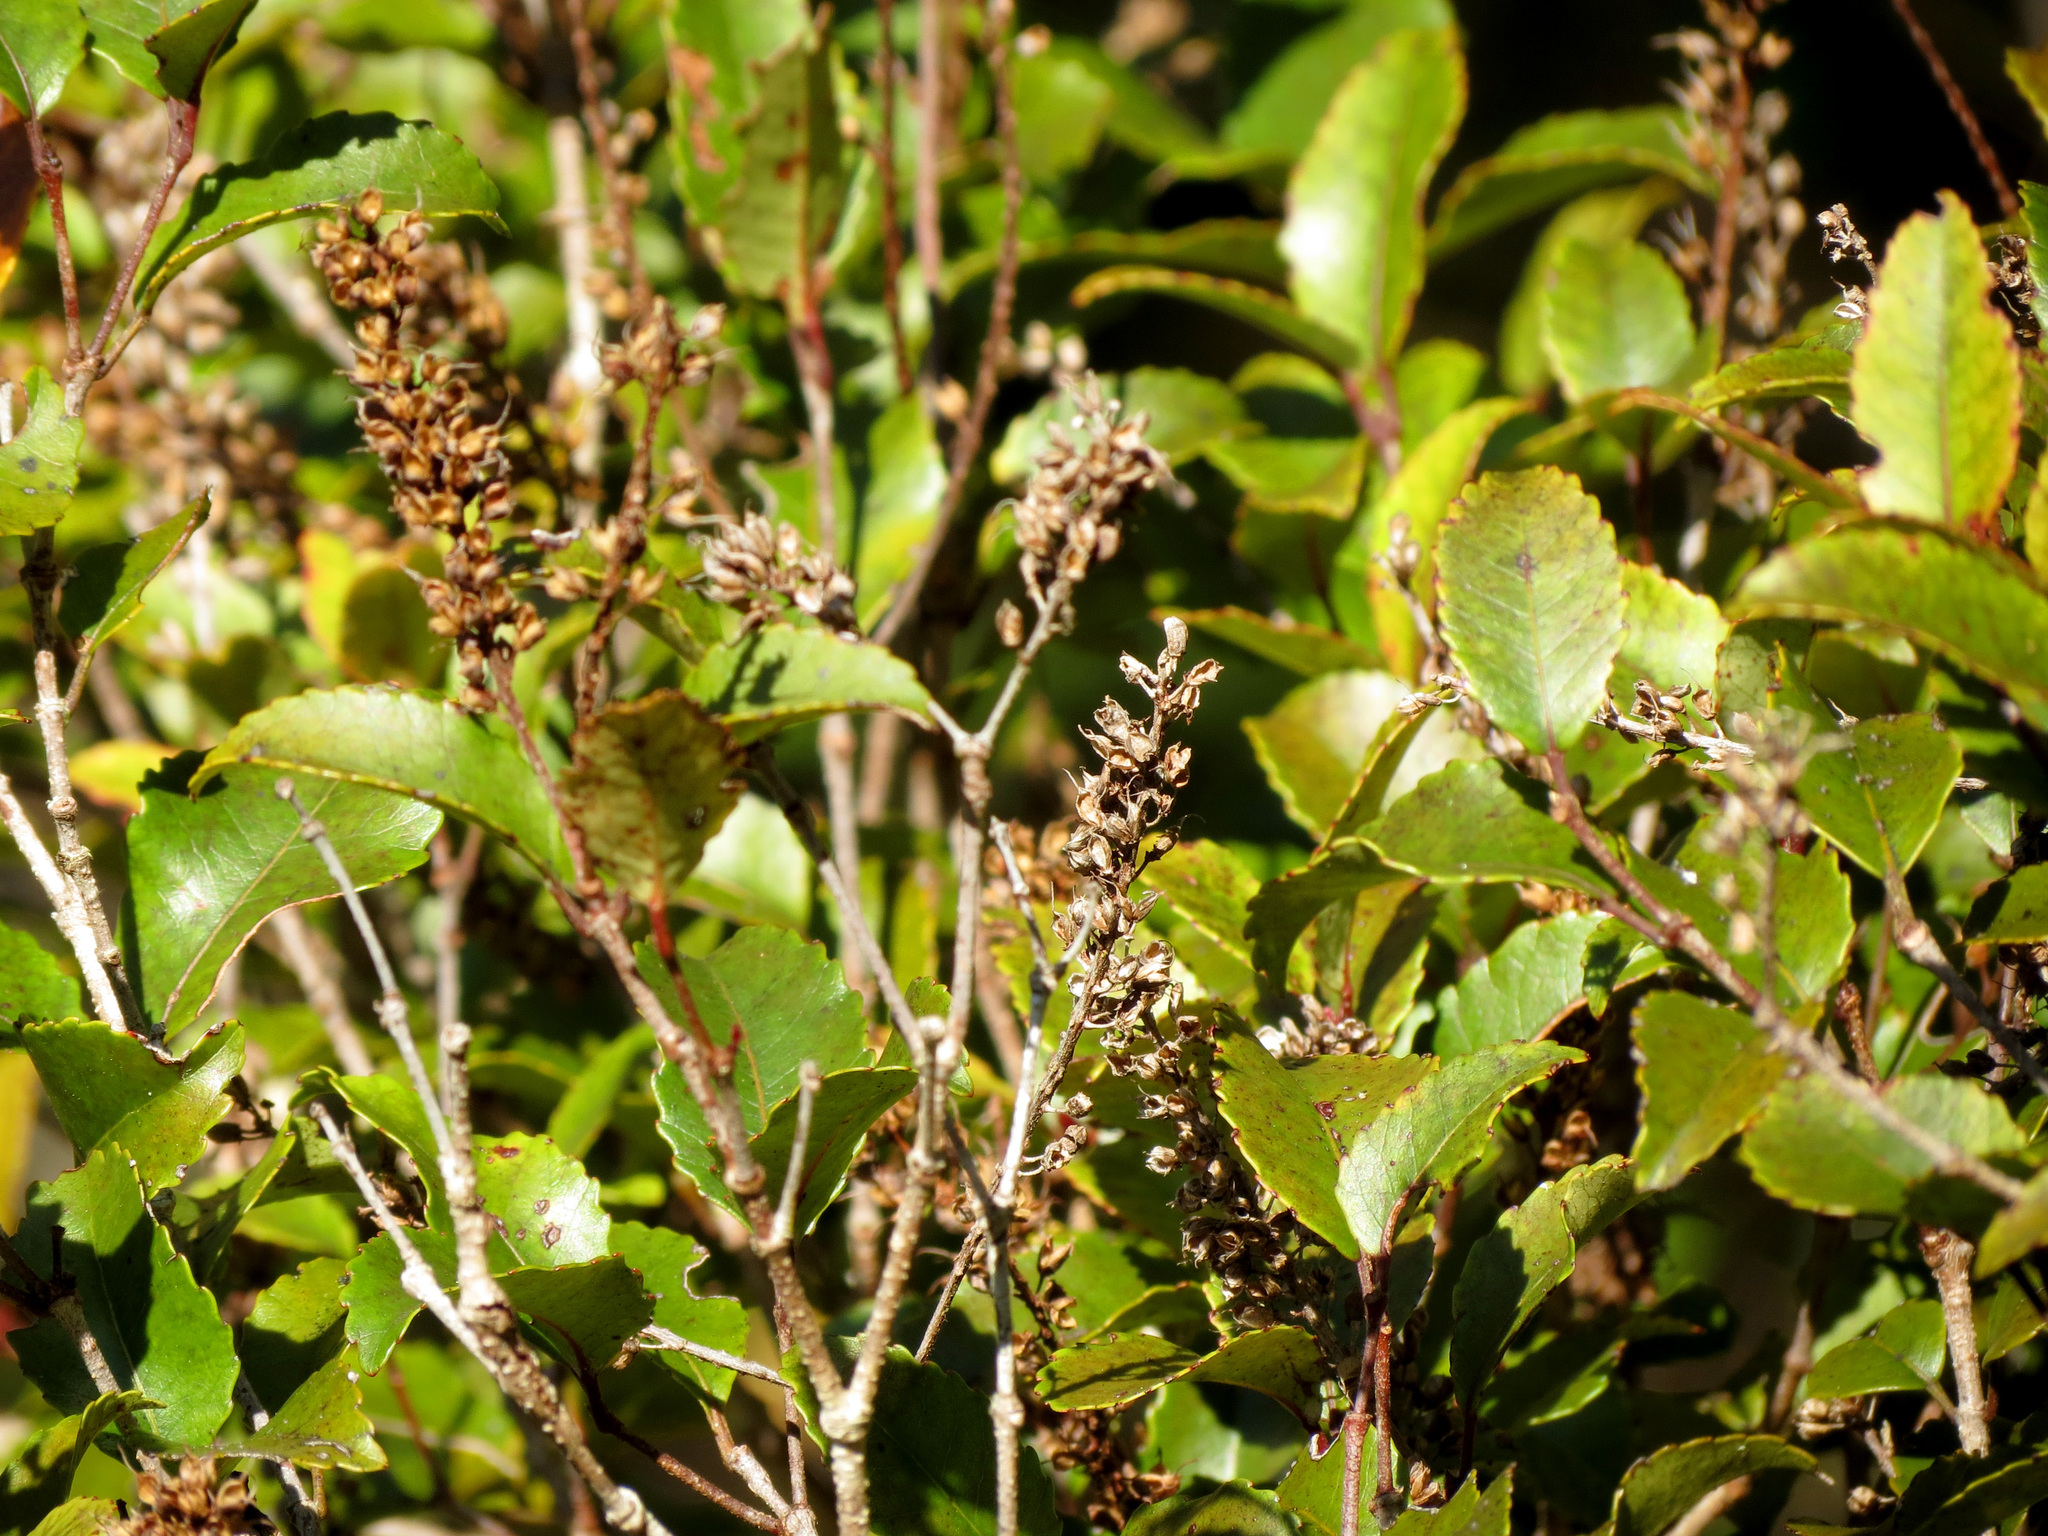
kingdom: Plantae
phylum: Tracheophyta
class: Magnoliopsida
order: Oxalidales
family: Cunoniaceae
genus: Pterophylla
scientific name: Pterophylla racemosa
